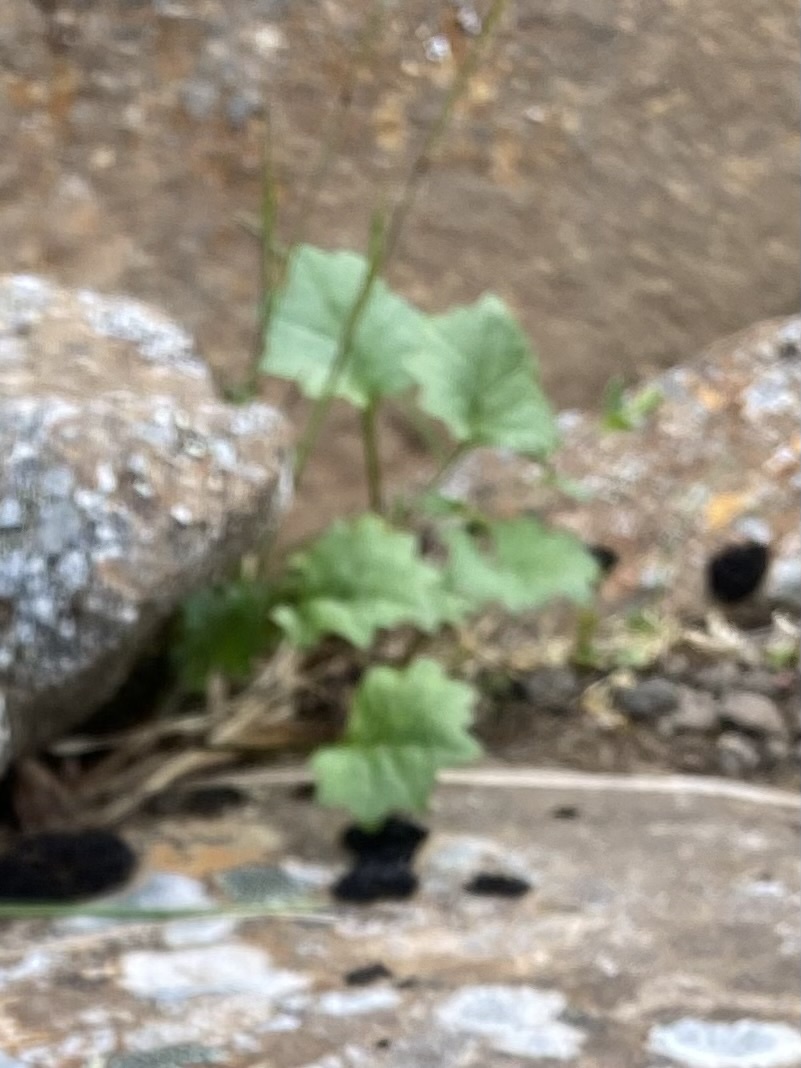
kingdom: Plantae
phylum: Tracheophyta
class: Magnoliopsida
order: Asterales
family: Asteraceae
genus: Endocellion
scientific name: Endocellion glaciale
